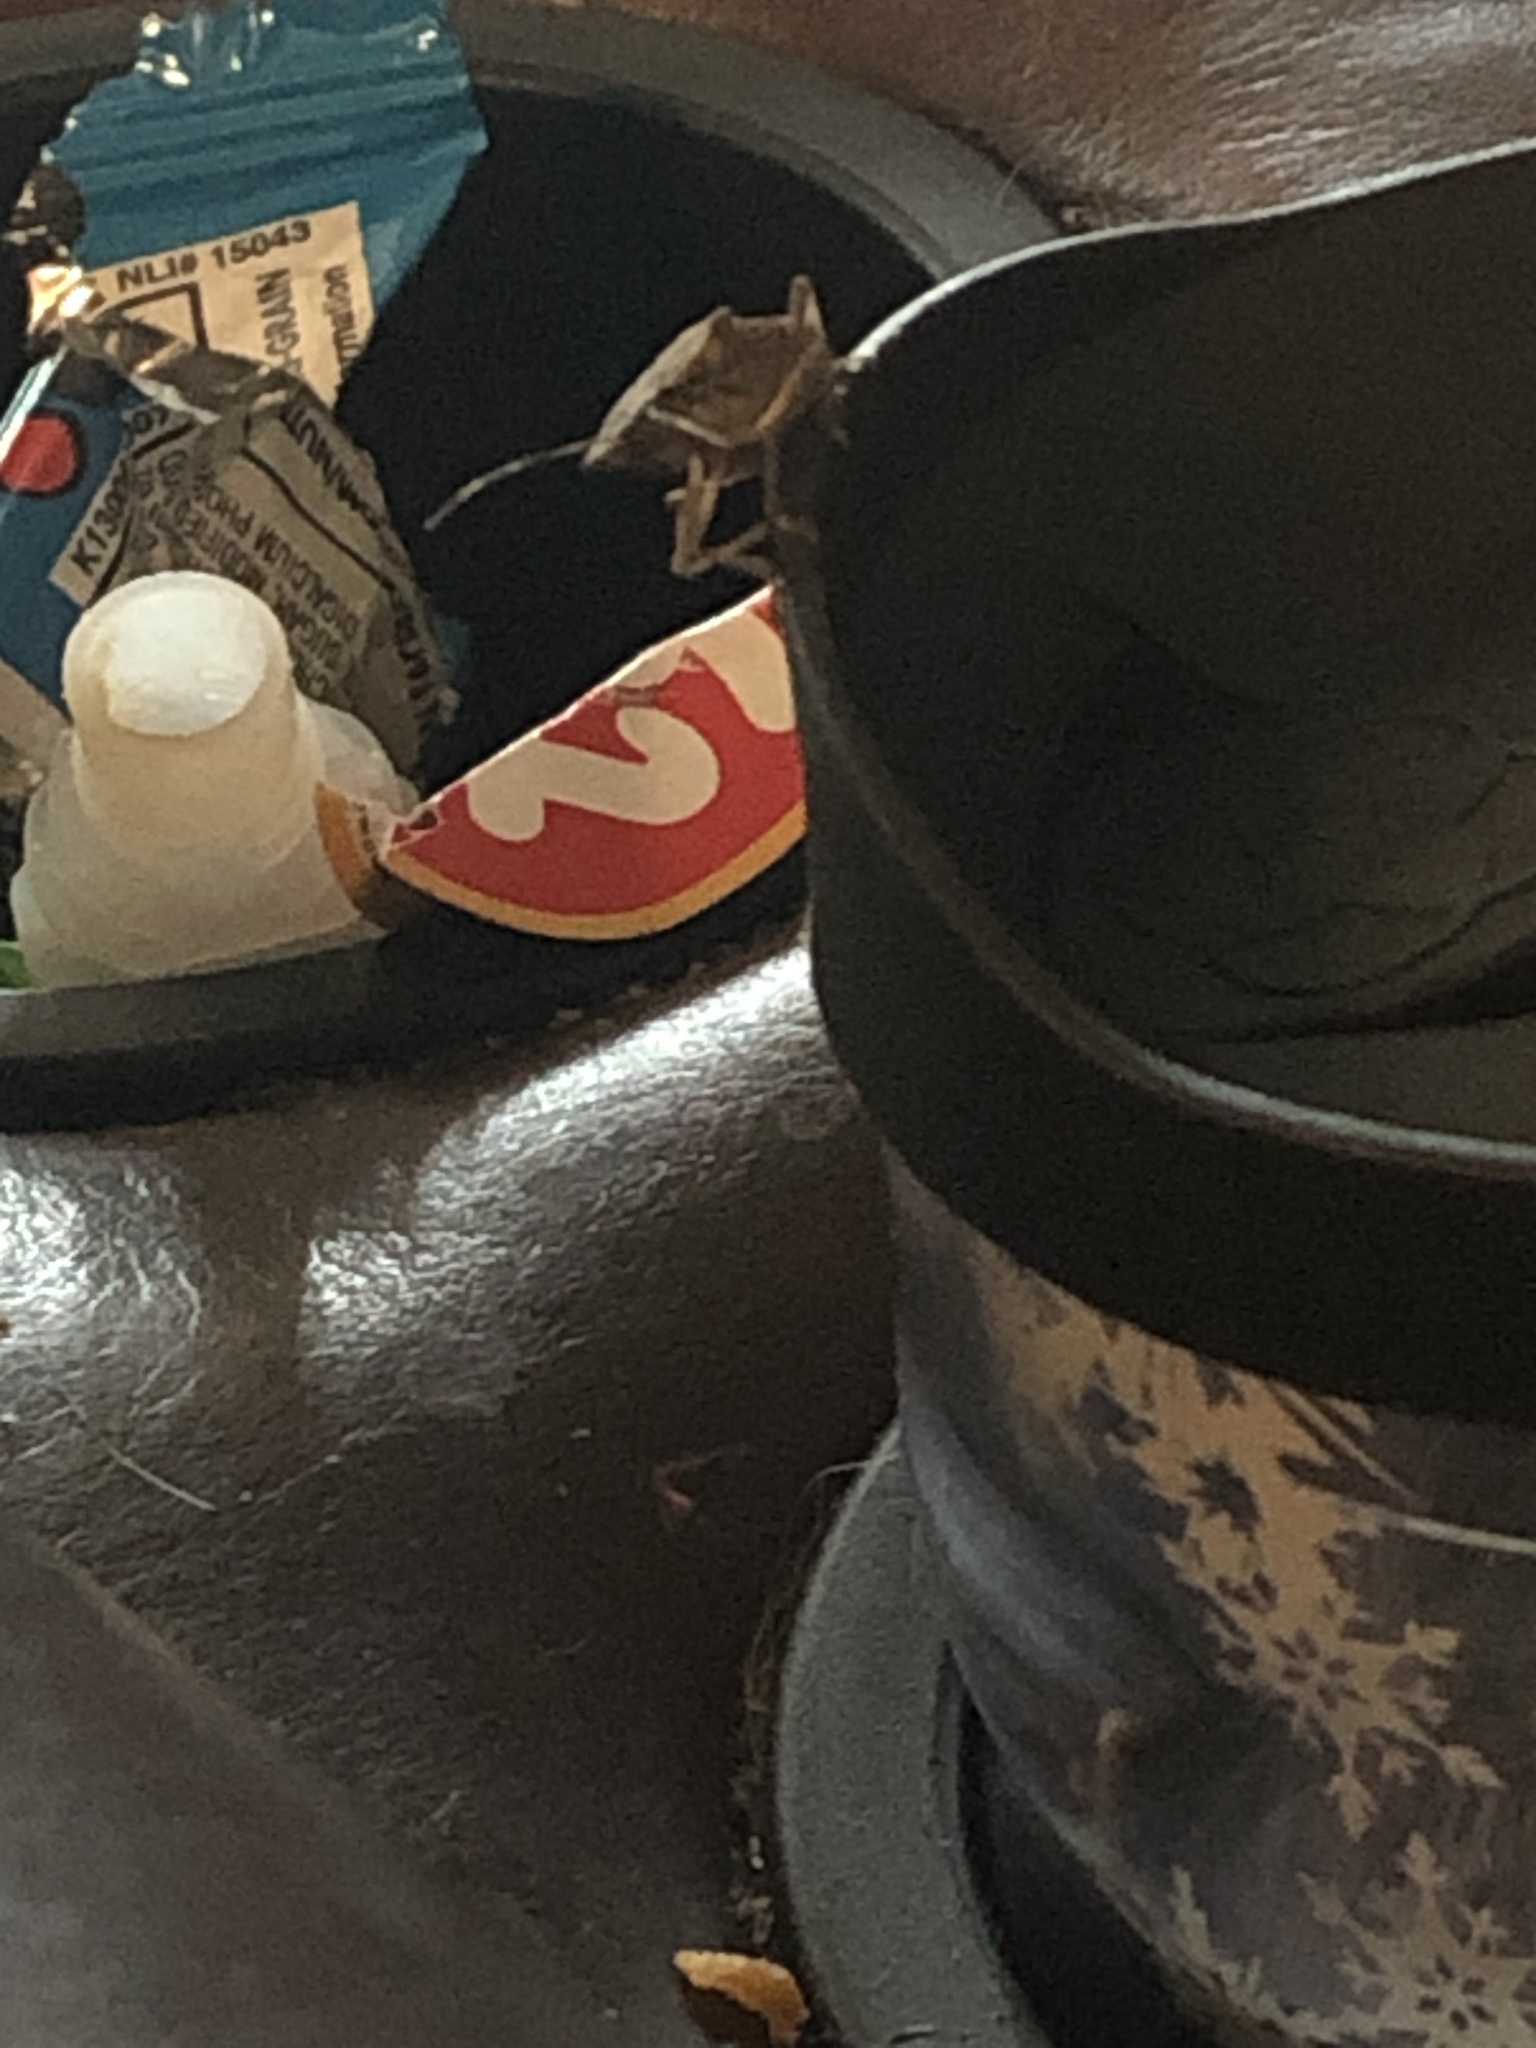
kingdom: Animalia
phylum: Arthropoda
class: Insecta
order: Hemiptera
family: Pentatomidae
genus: Halyomorpha
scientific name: Halyomorpha halys
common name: Brown marmorated stink bug
